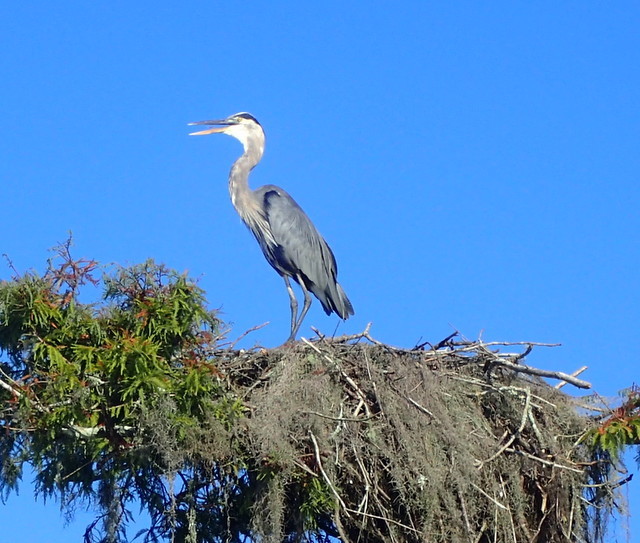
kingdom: Animalia
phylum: Chordata
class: Aves
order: Pelecaniformes
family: Ardeidae
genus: Ardea
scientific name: Ardea herodias
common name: Great blue heron
